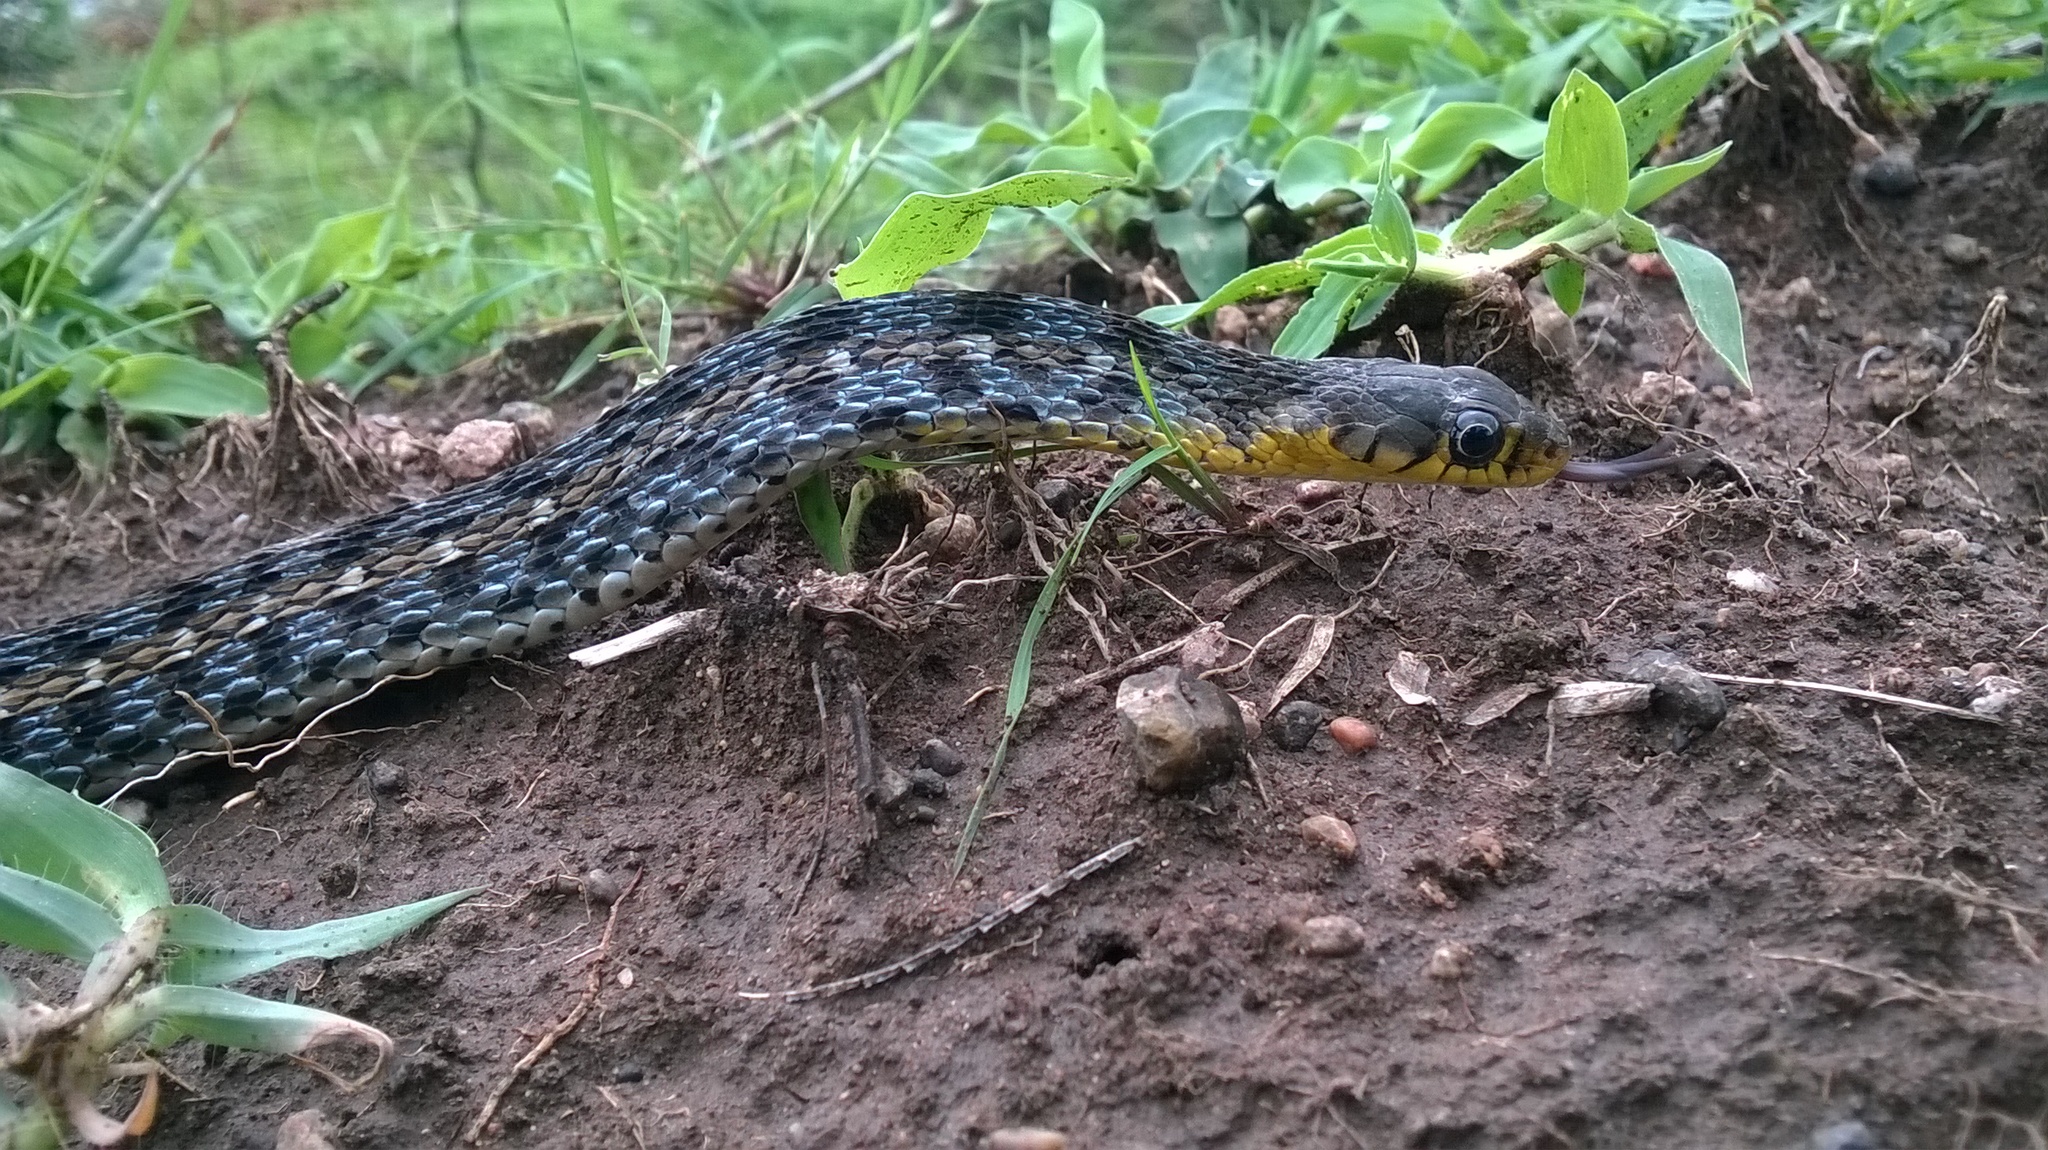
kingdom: Animalia
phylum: Chordata
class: Squamata
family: Colubridae
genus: Amphiesma
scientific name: Amphiesma stolatum
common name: Buff striped keelback
